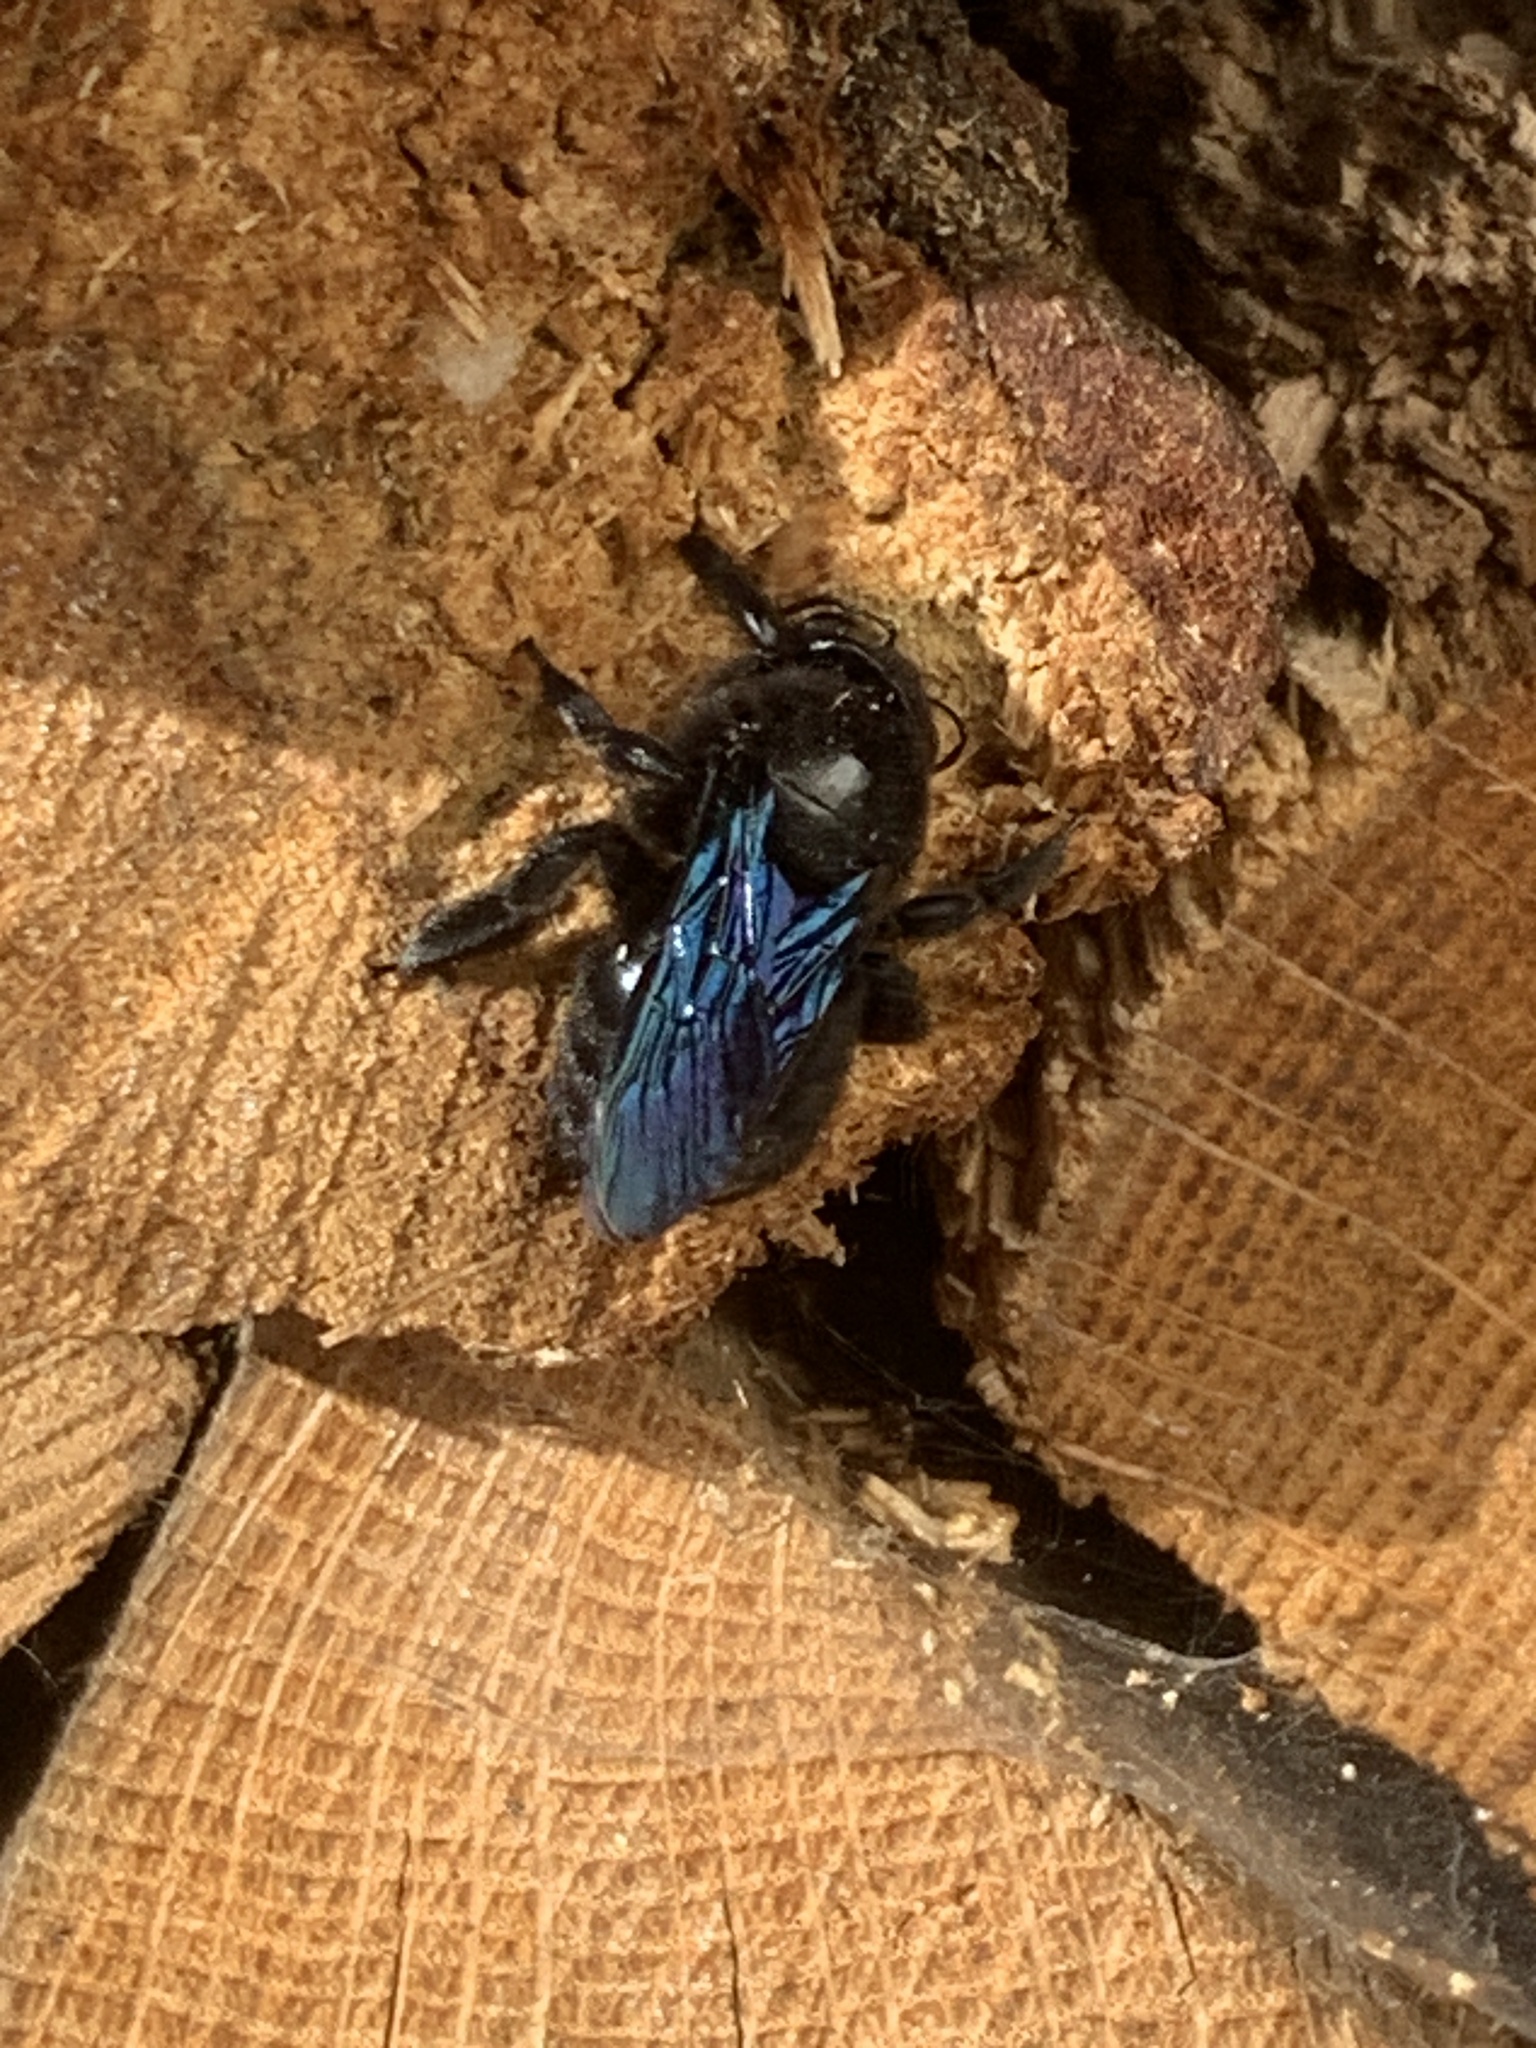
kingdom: Animalia
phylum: Arthropoda
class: Insecta
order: Hymenoptera
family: Apidae
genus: Xylocopa
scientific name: Xylocopa violacea
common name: Violet carpenter bee
